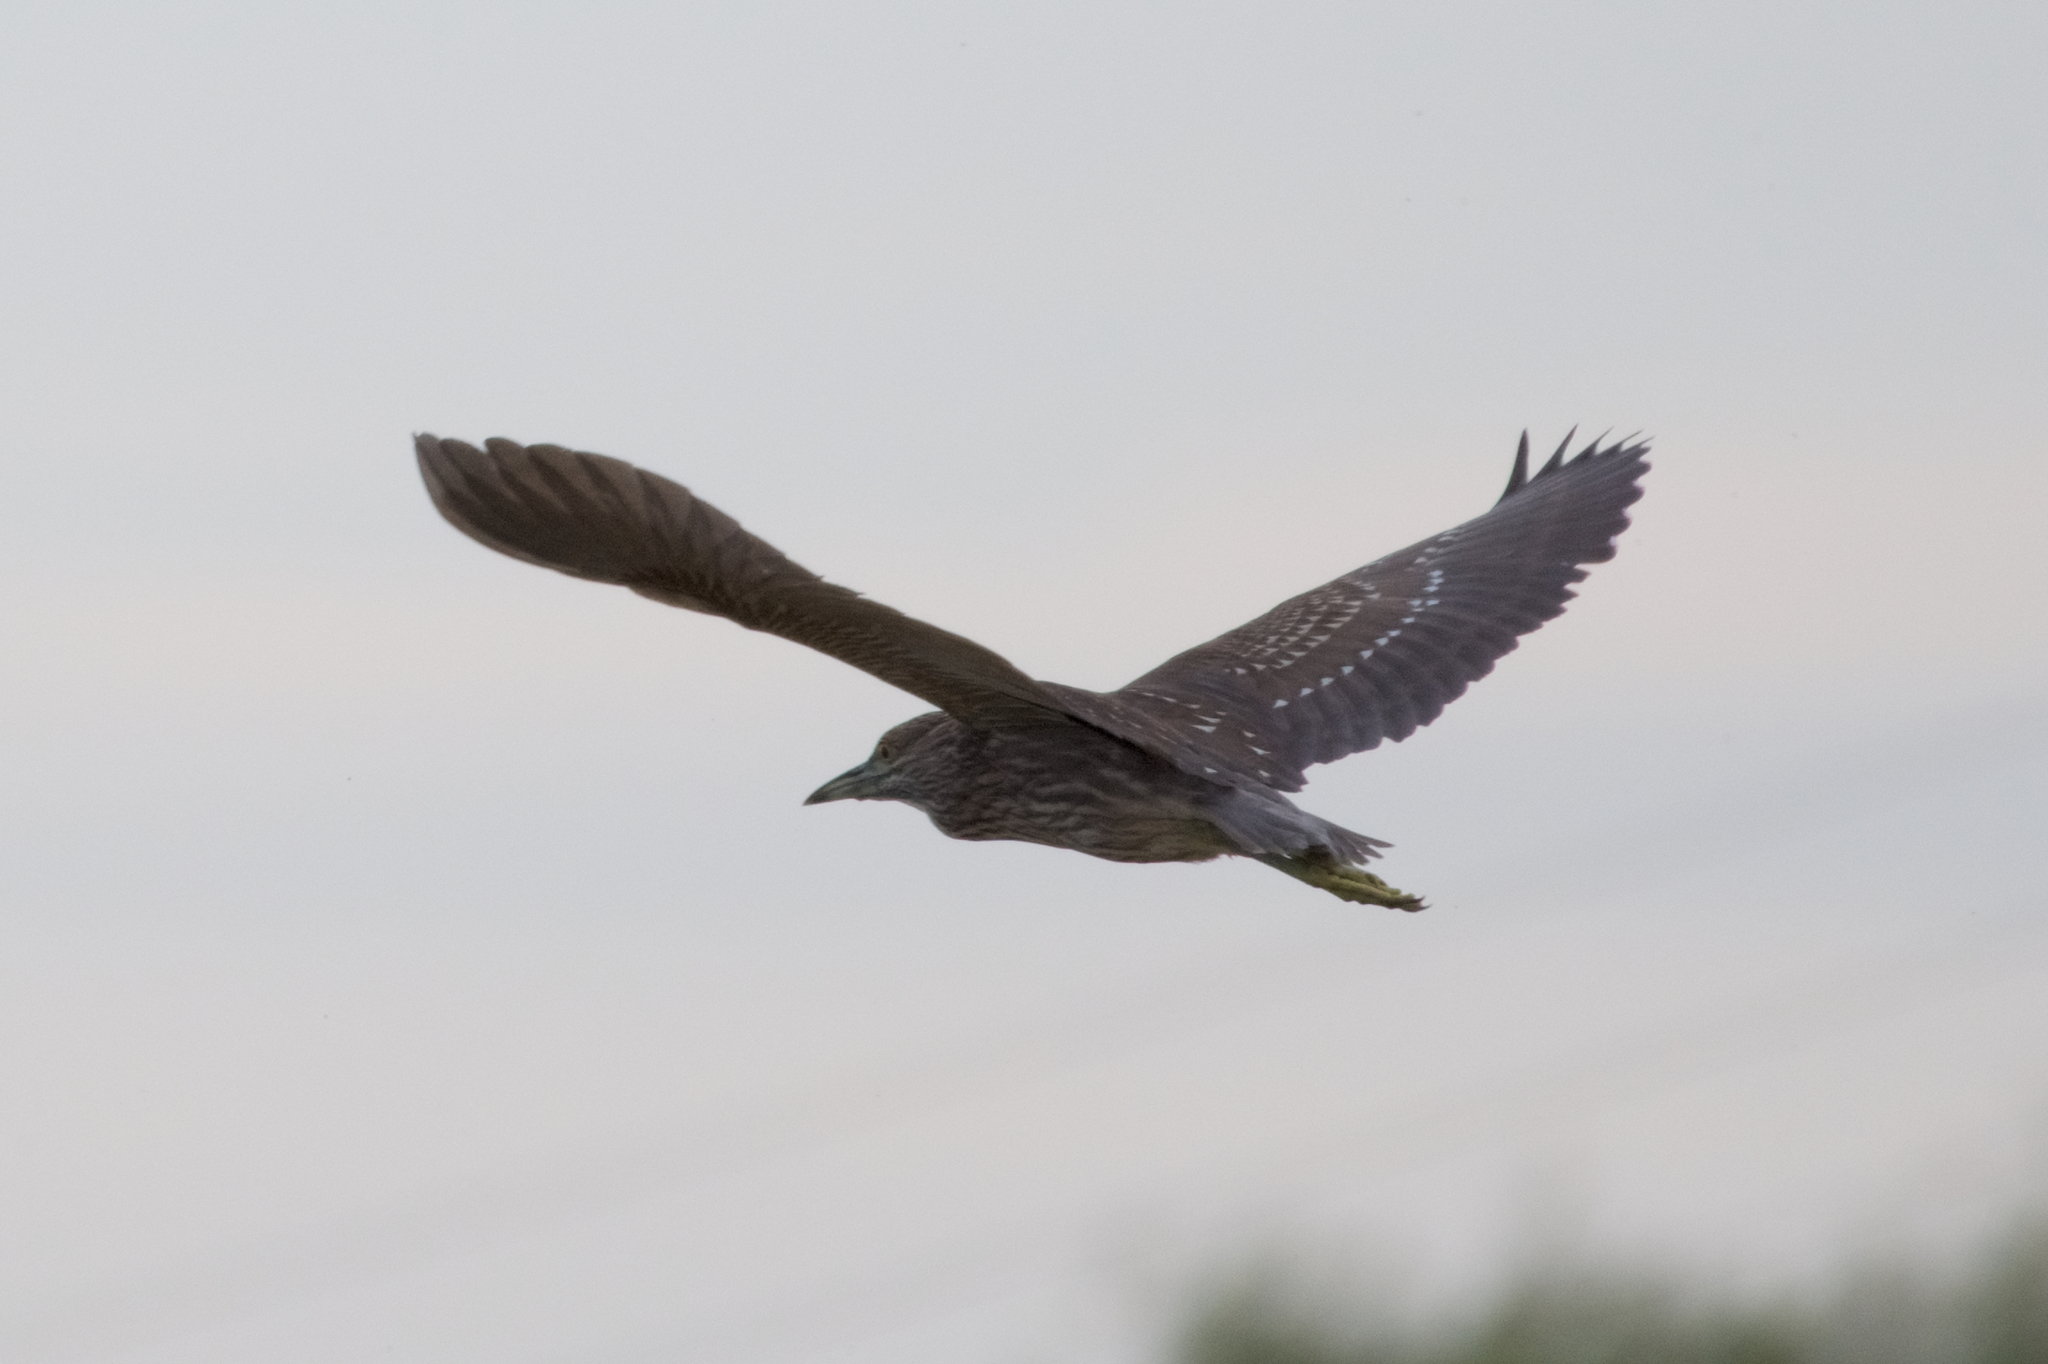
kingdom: Animalia
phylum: Chordata
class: Aves
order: Pelecaniformes
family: Ardeidae
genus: Nycticorax
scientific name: Nycticorax nycticorax
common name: Black-crowned night heron
